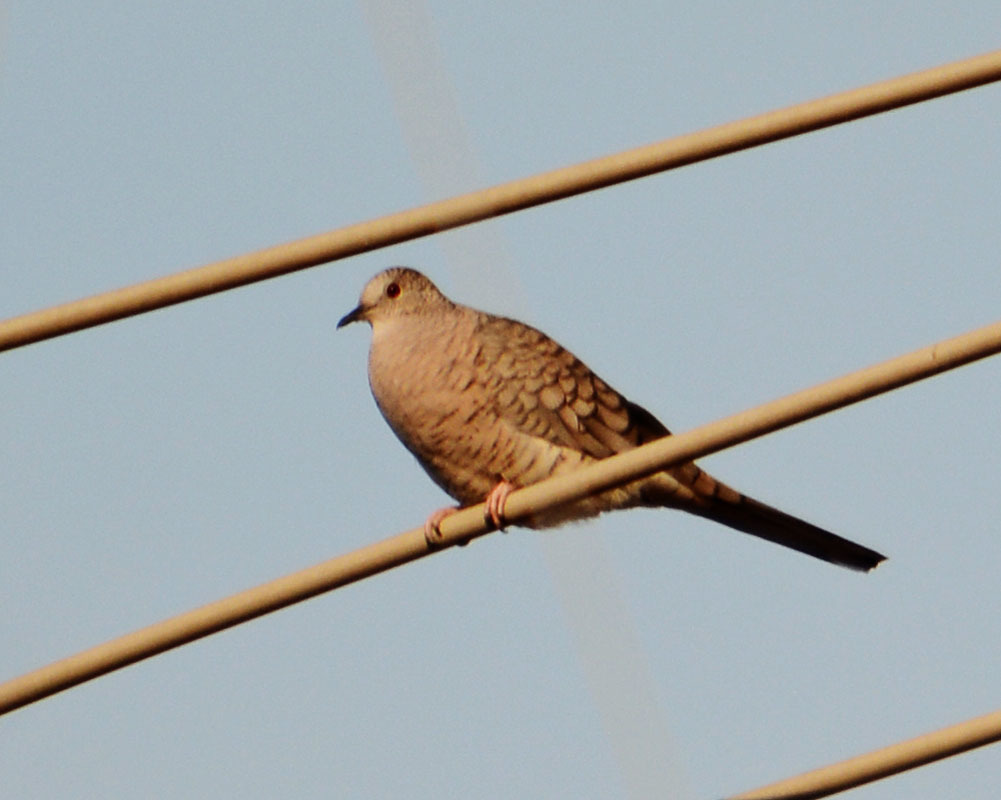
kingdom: Animalia
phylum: Chordata
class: Aves
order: Columbiformes
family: Columbidae
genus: Columbina
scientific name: Columbina inca
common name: Inca dove
